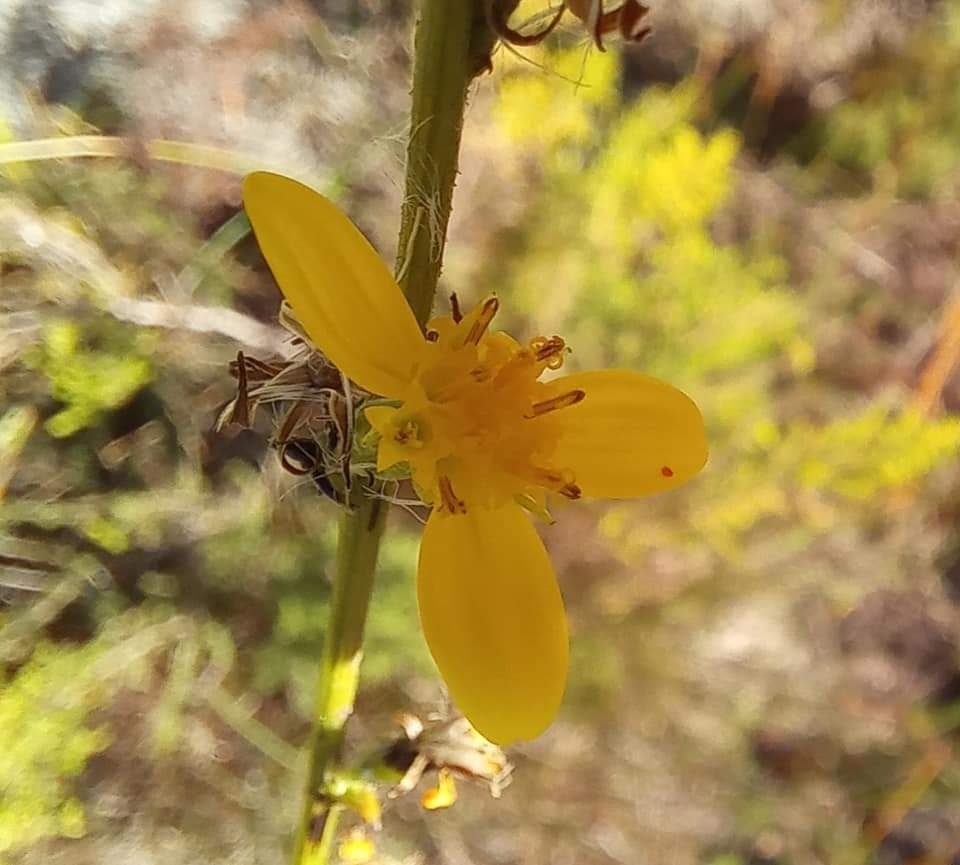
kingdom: Plantae
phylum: Tracheophyta
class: Magnoliopsida
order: Asterales
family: Asteraceae
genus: Senecio
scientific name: Senecio pubigerus
